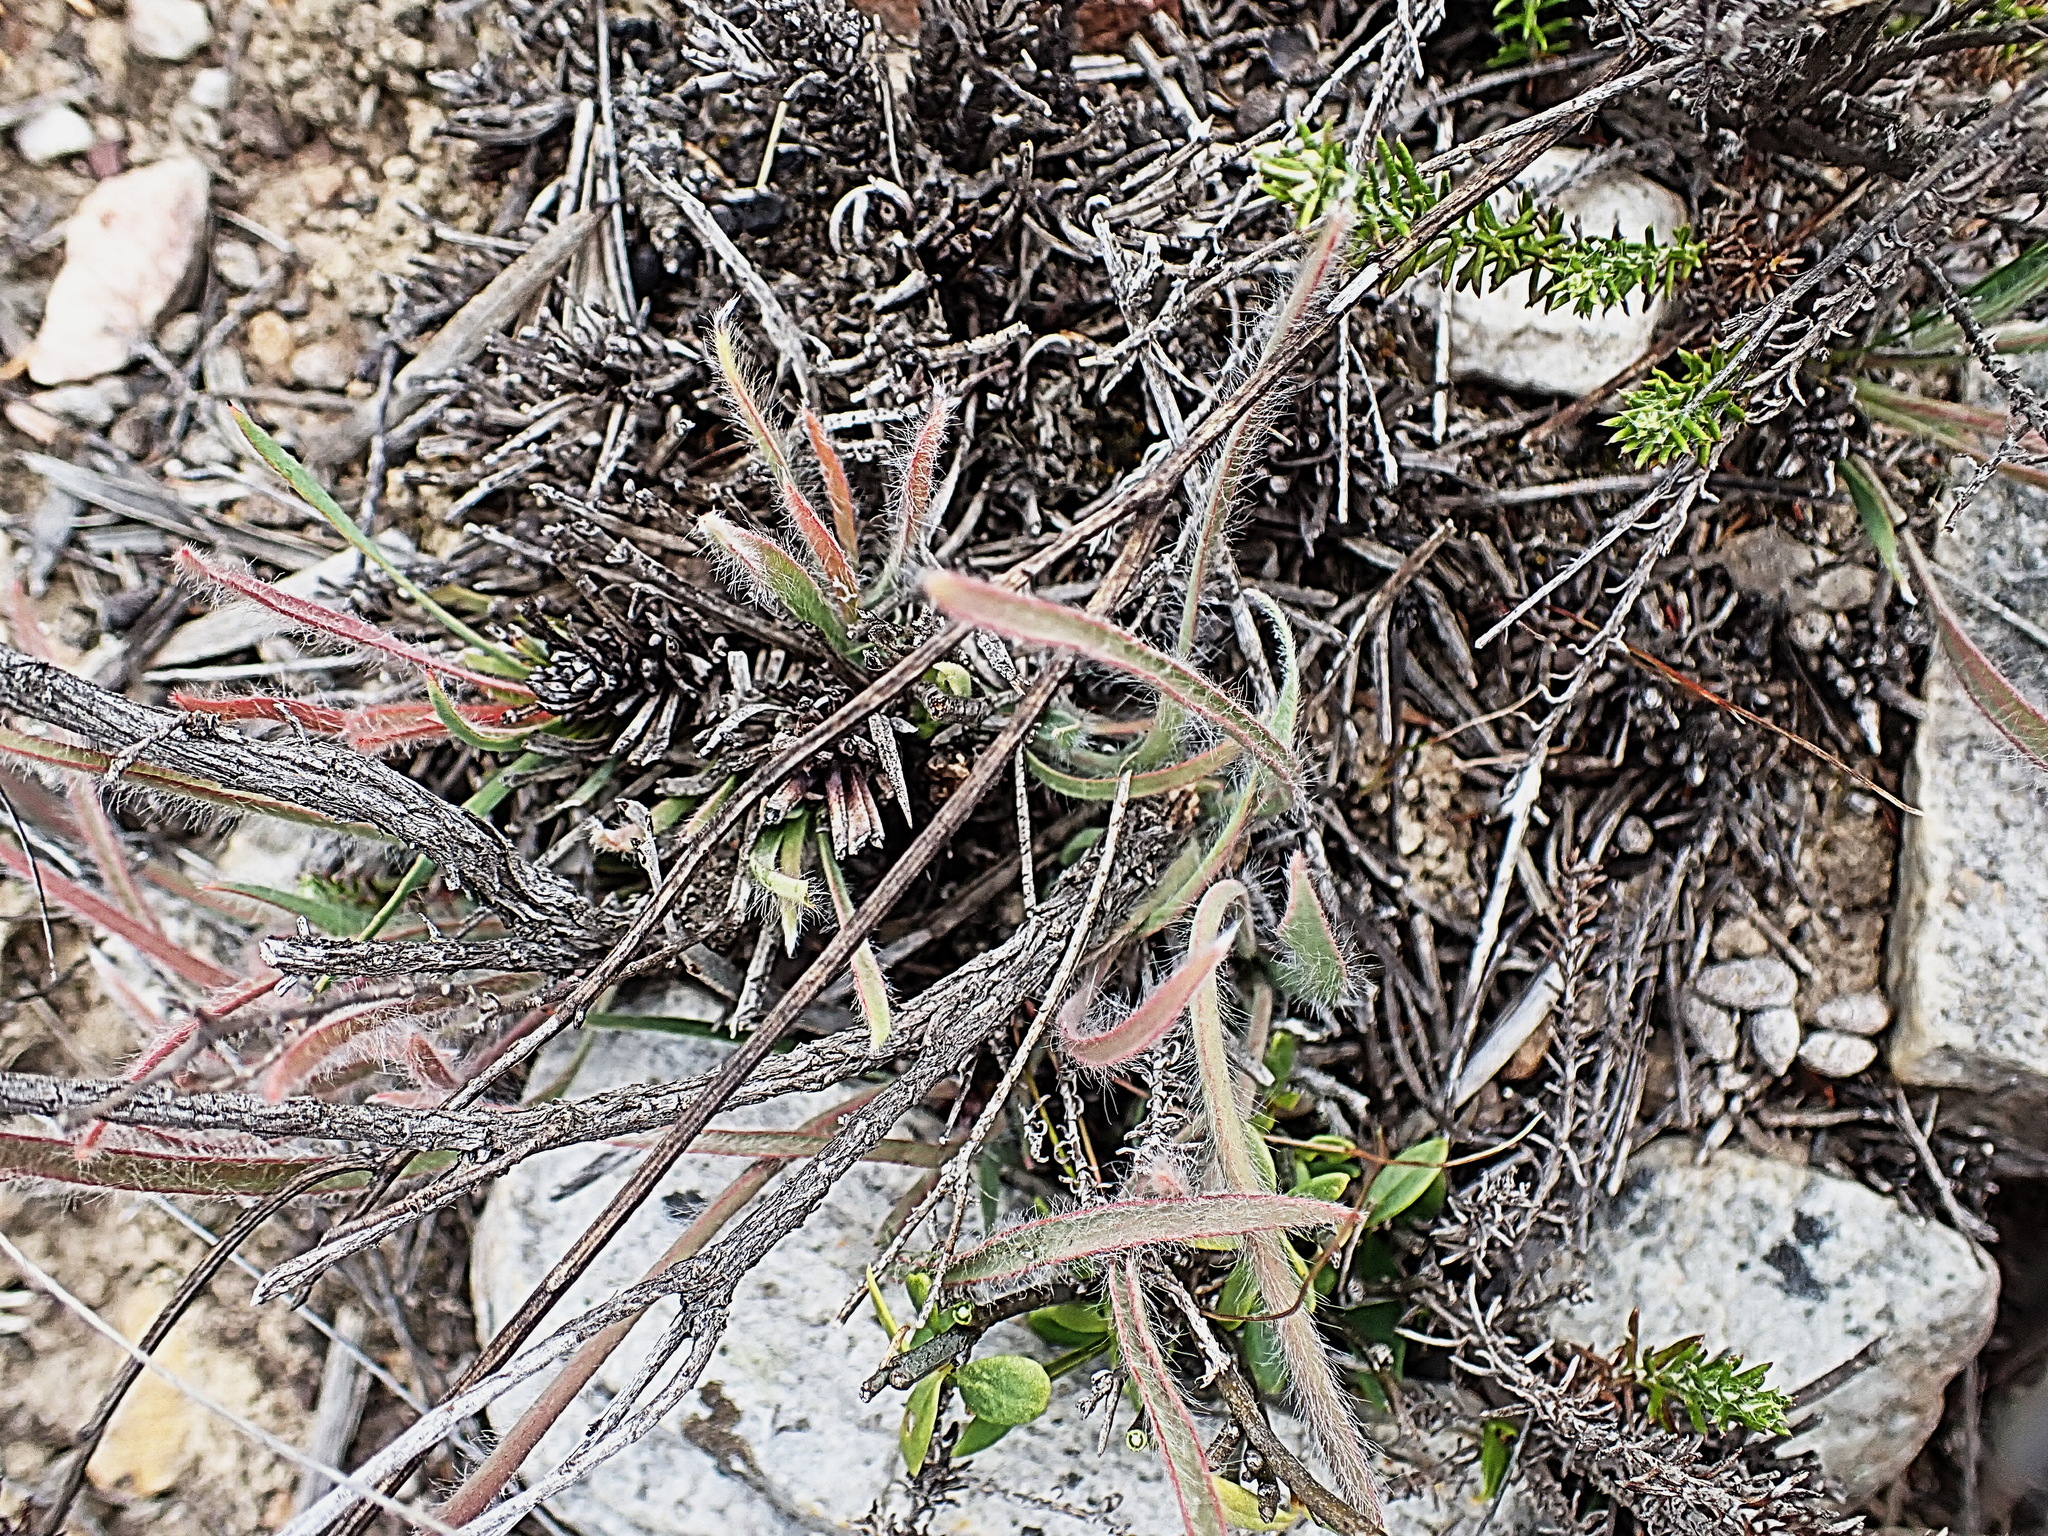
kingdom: Plantae
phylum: Tracheophyta
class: Magnoliopsida
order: Proteales
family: Proteaceae
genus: Protea
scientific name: Protea intonsa
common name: Tufted sugarbush
